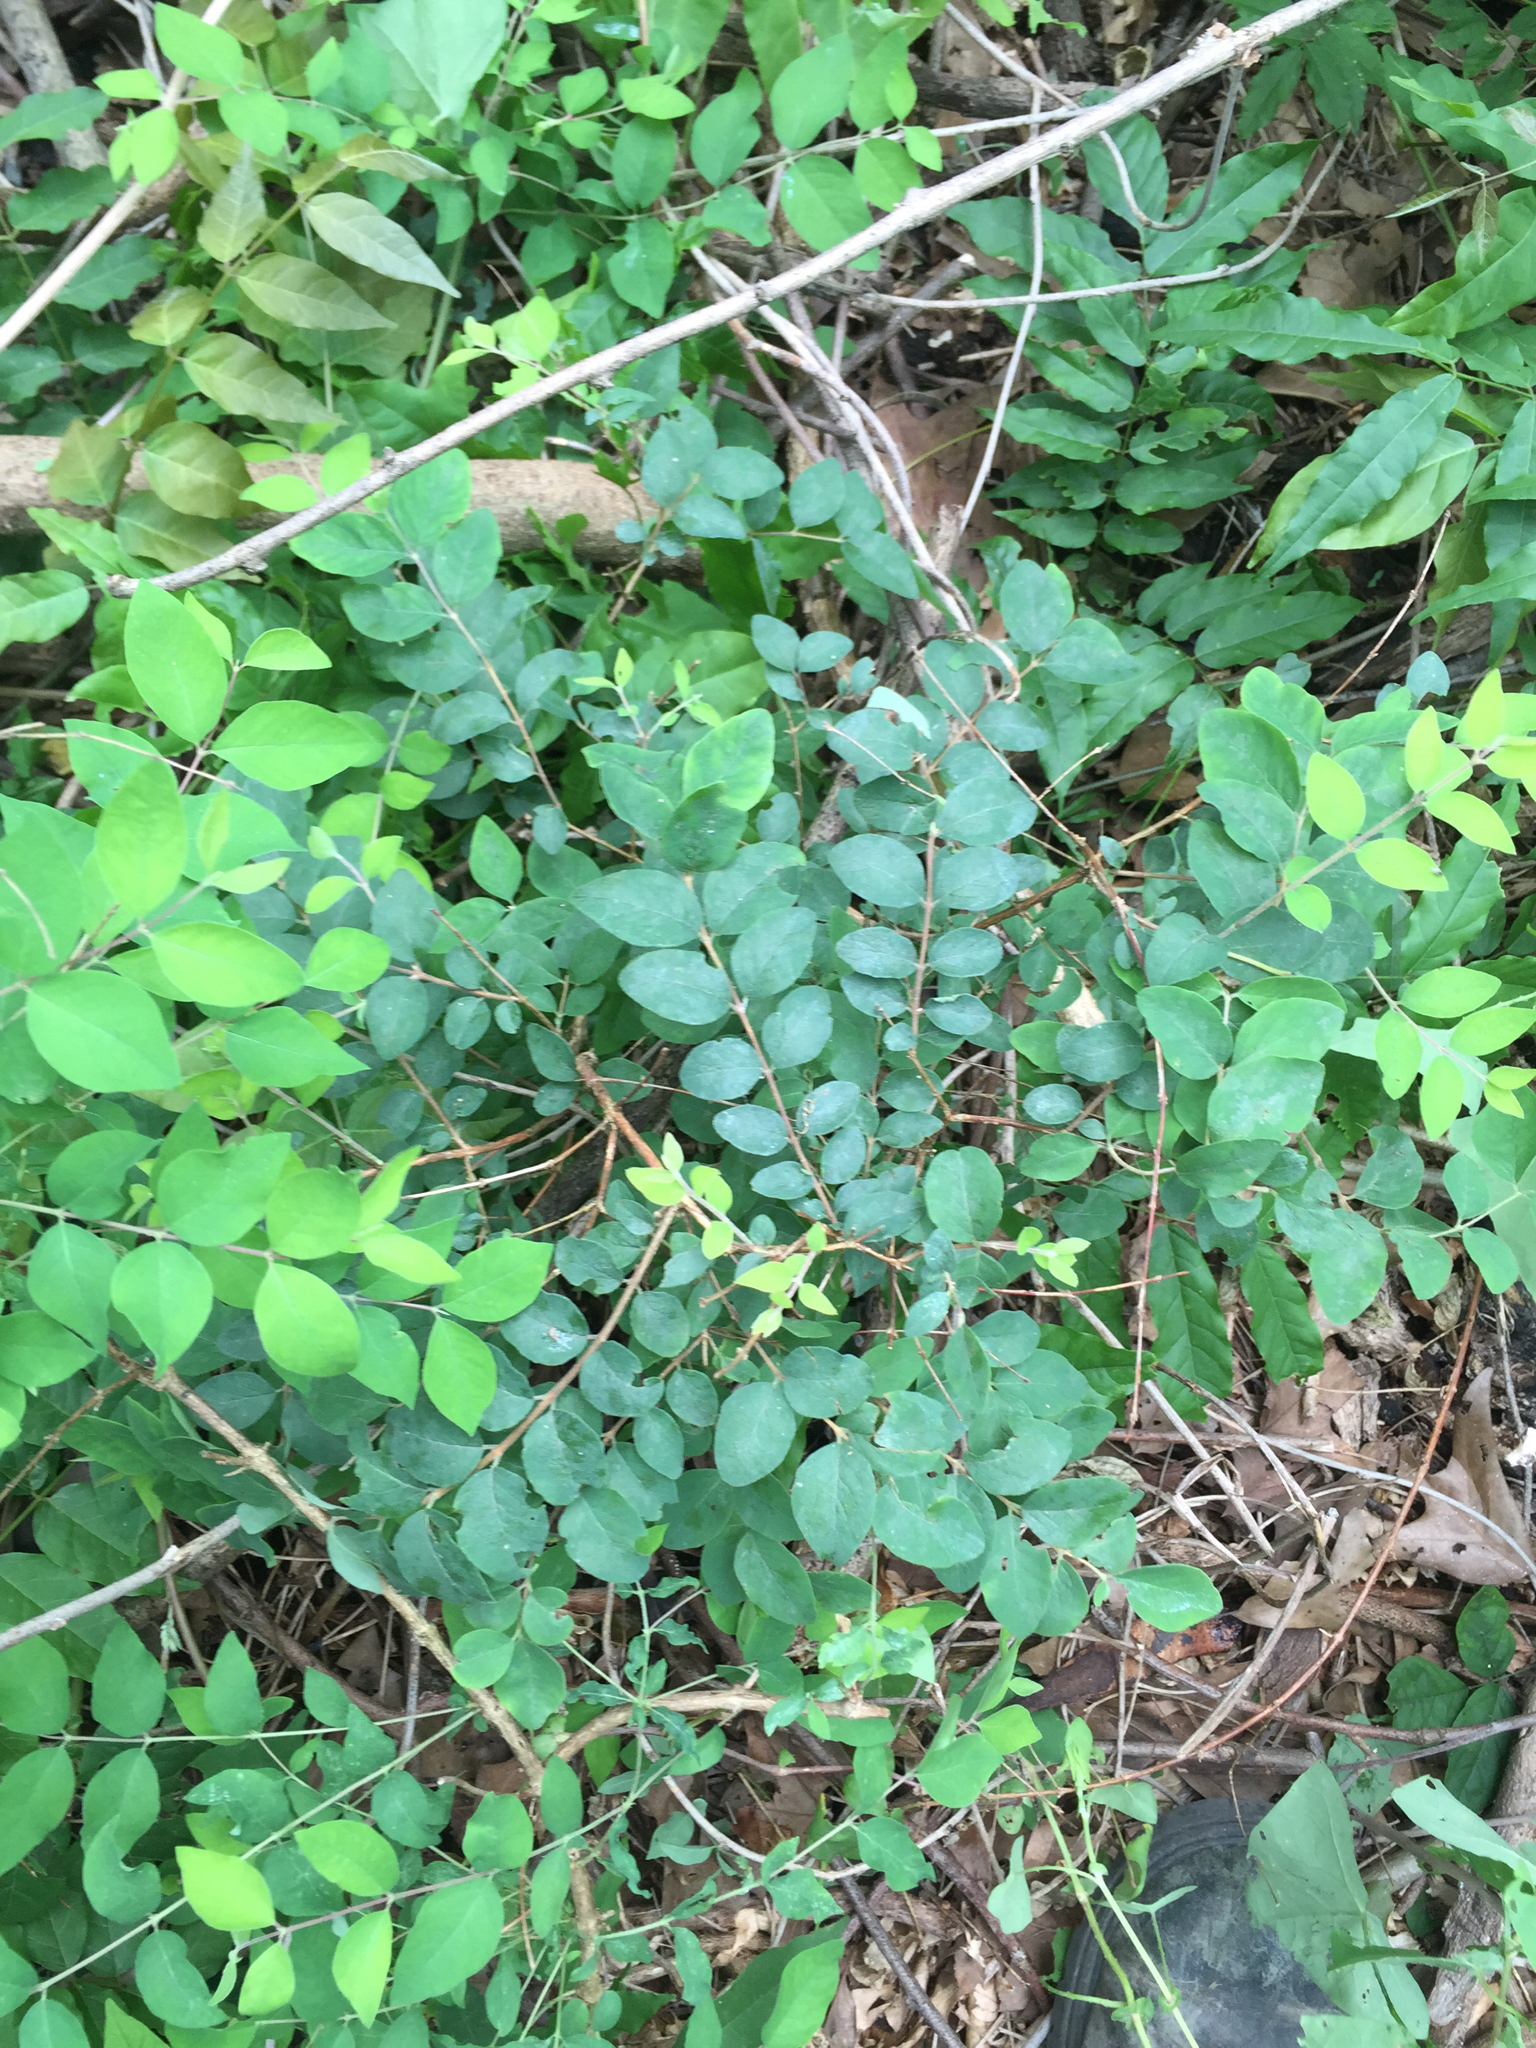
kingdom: Plantae
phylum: Tracheophyta
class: Magnoliopsida
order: Dipsacales
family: Caprifoliaceae
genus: Symphoricarpos
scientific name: Symphoricarpos orbiculatus
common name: Coralberry
